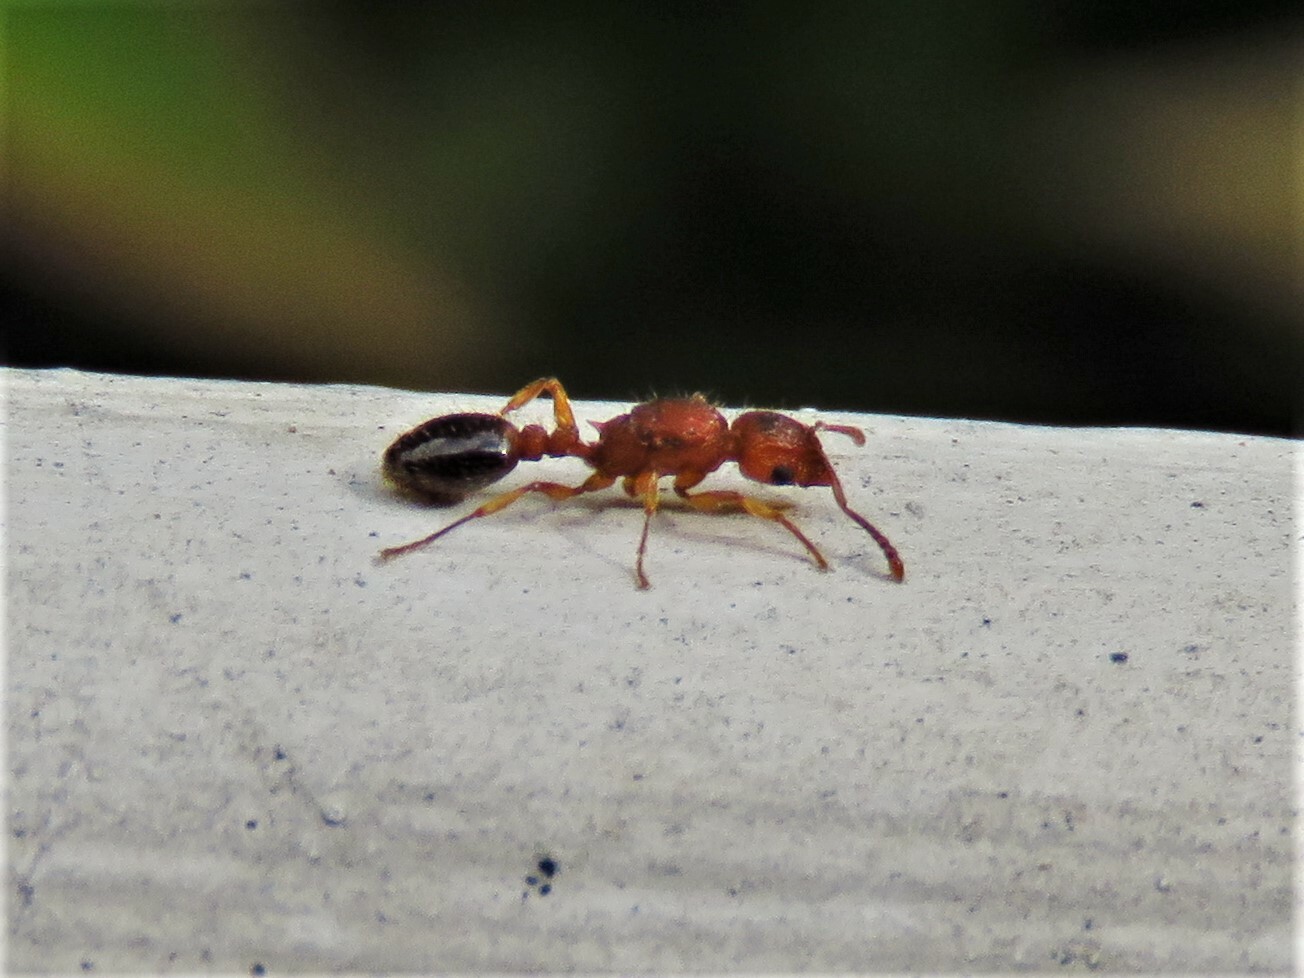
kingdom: Animalia
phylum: Arthropoda
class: Insecta
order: Hymenoptera
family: Formicidae
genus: Tetramorium
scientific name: Tetramorium bicarinatum
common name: Guinea ant
